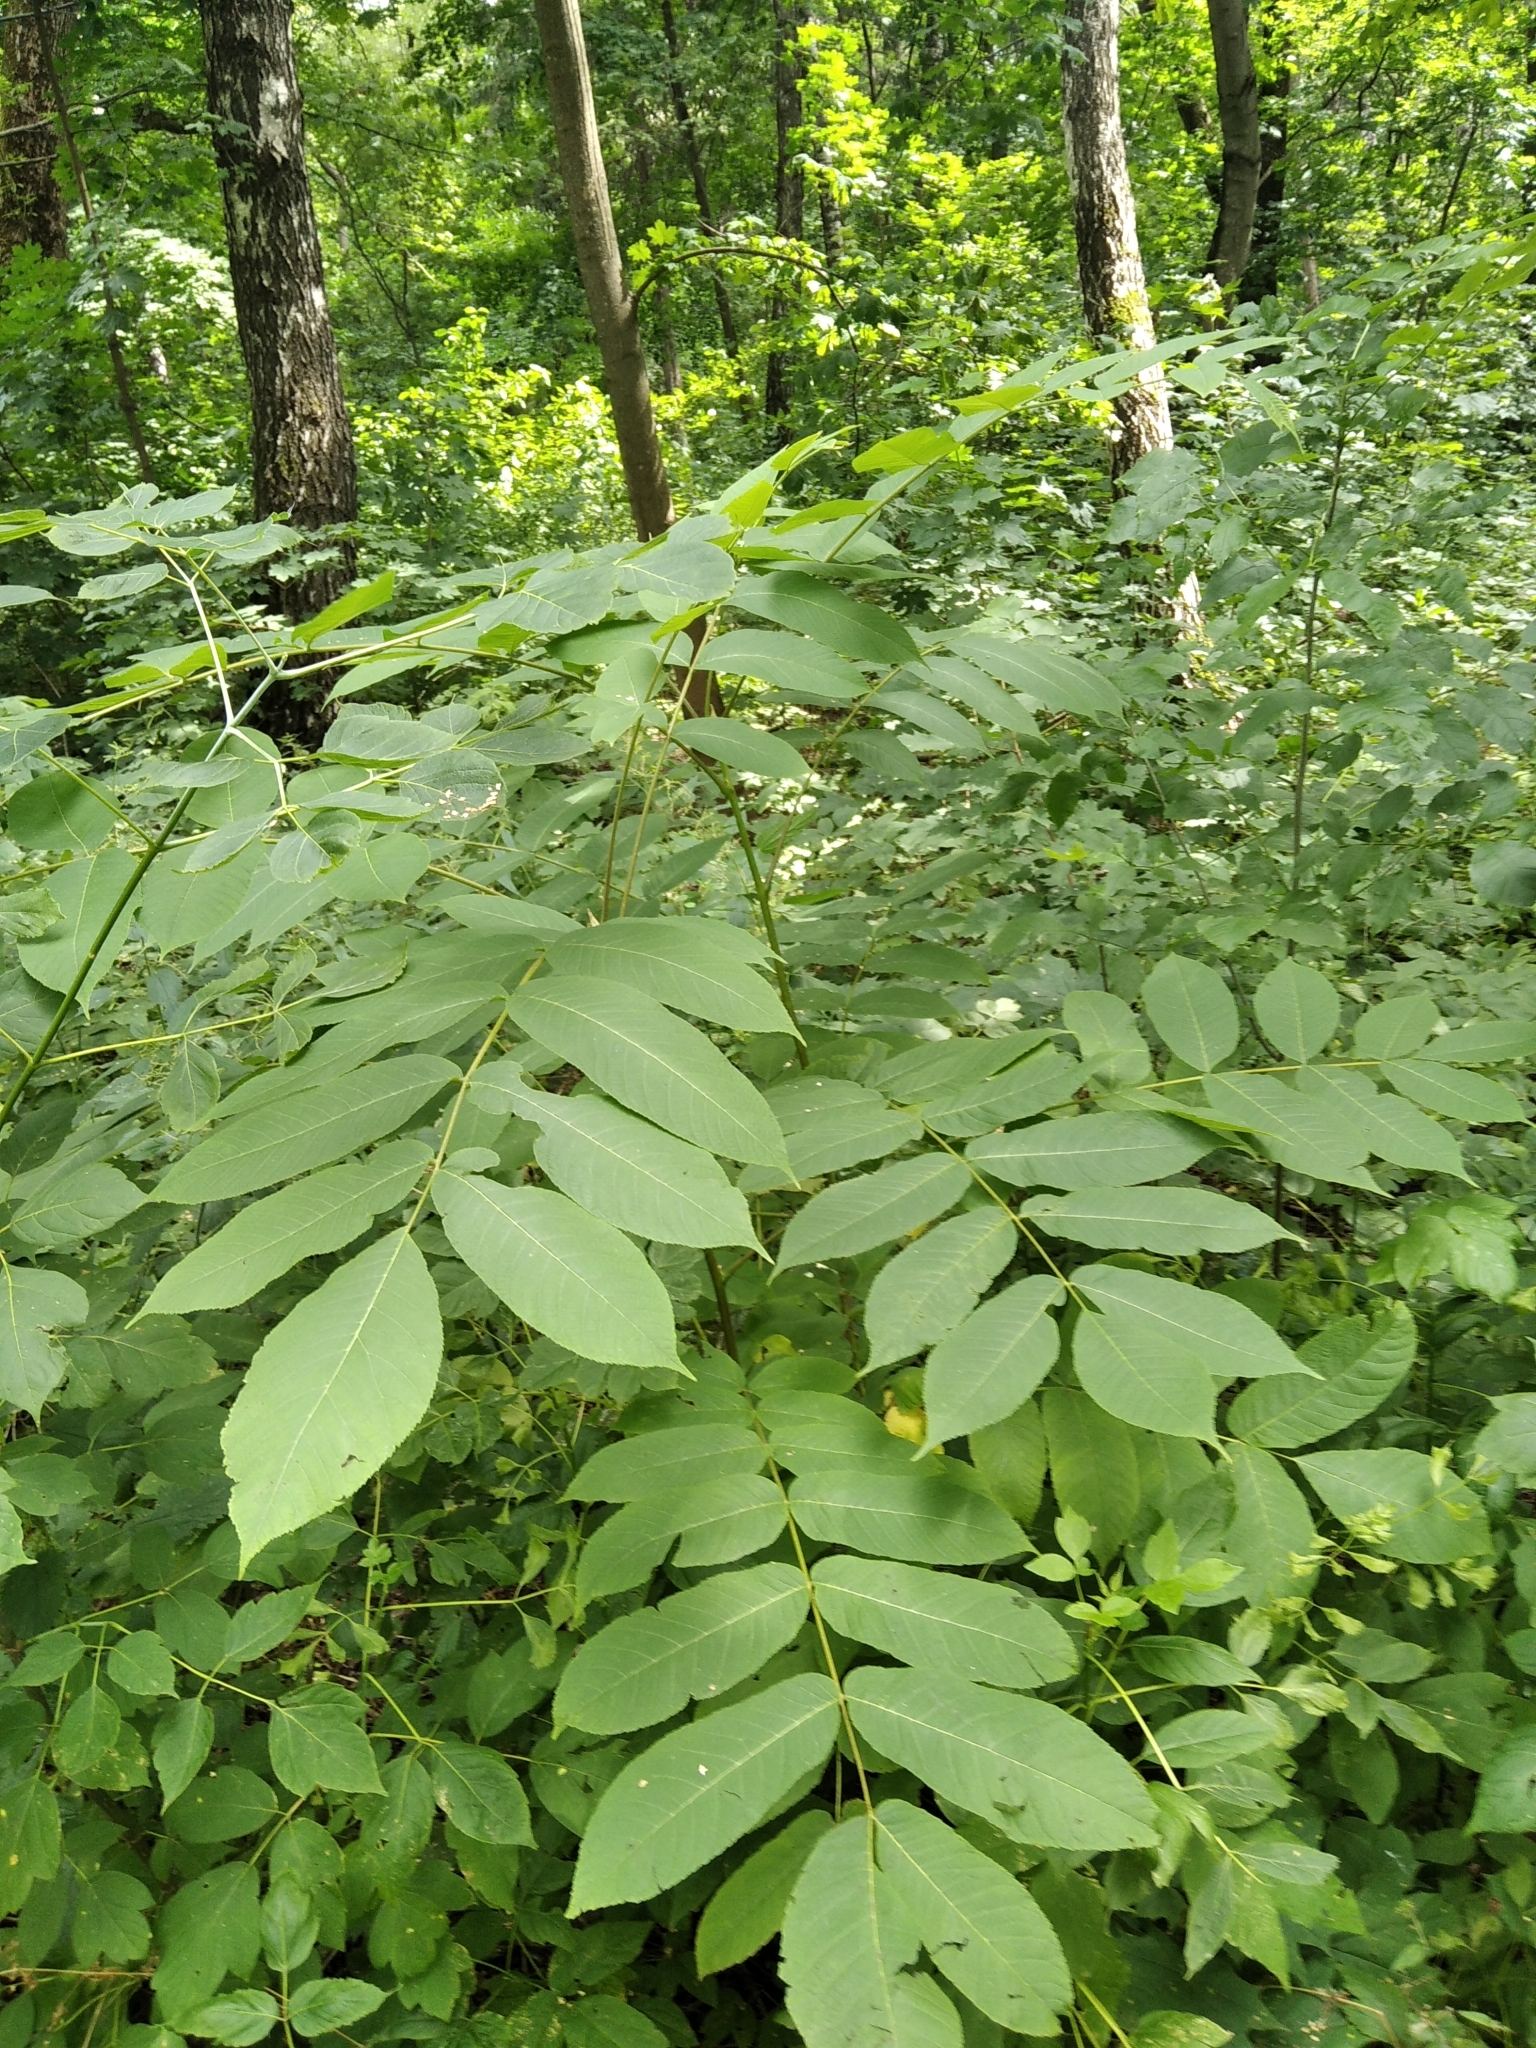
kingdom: Plantae
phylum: Tracheophyta
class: Magnoliopsida
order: Fagales
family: Juglandaceae
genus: Juglans
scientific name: Juglans mandshurica
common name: Manchurian walnut
